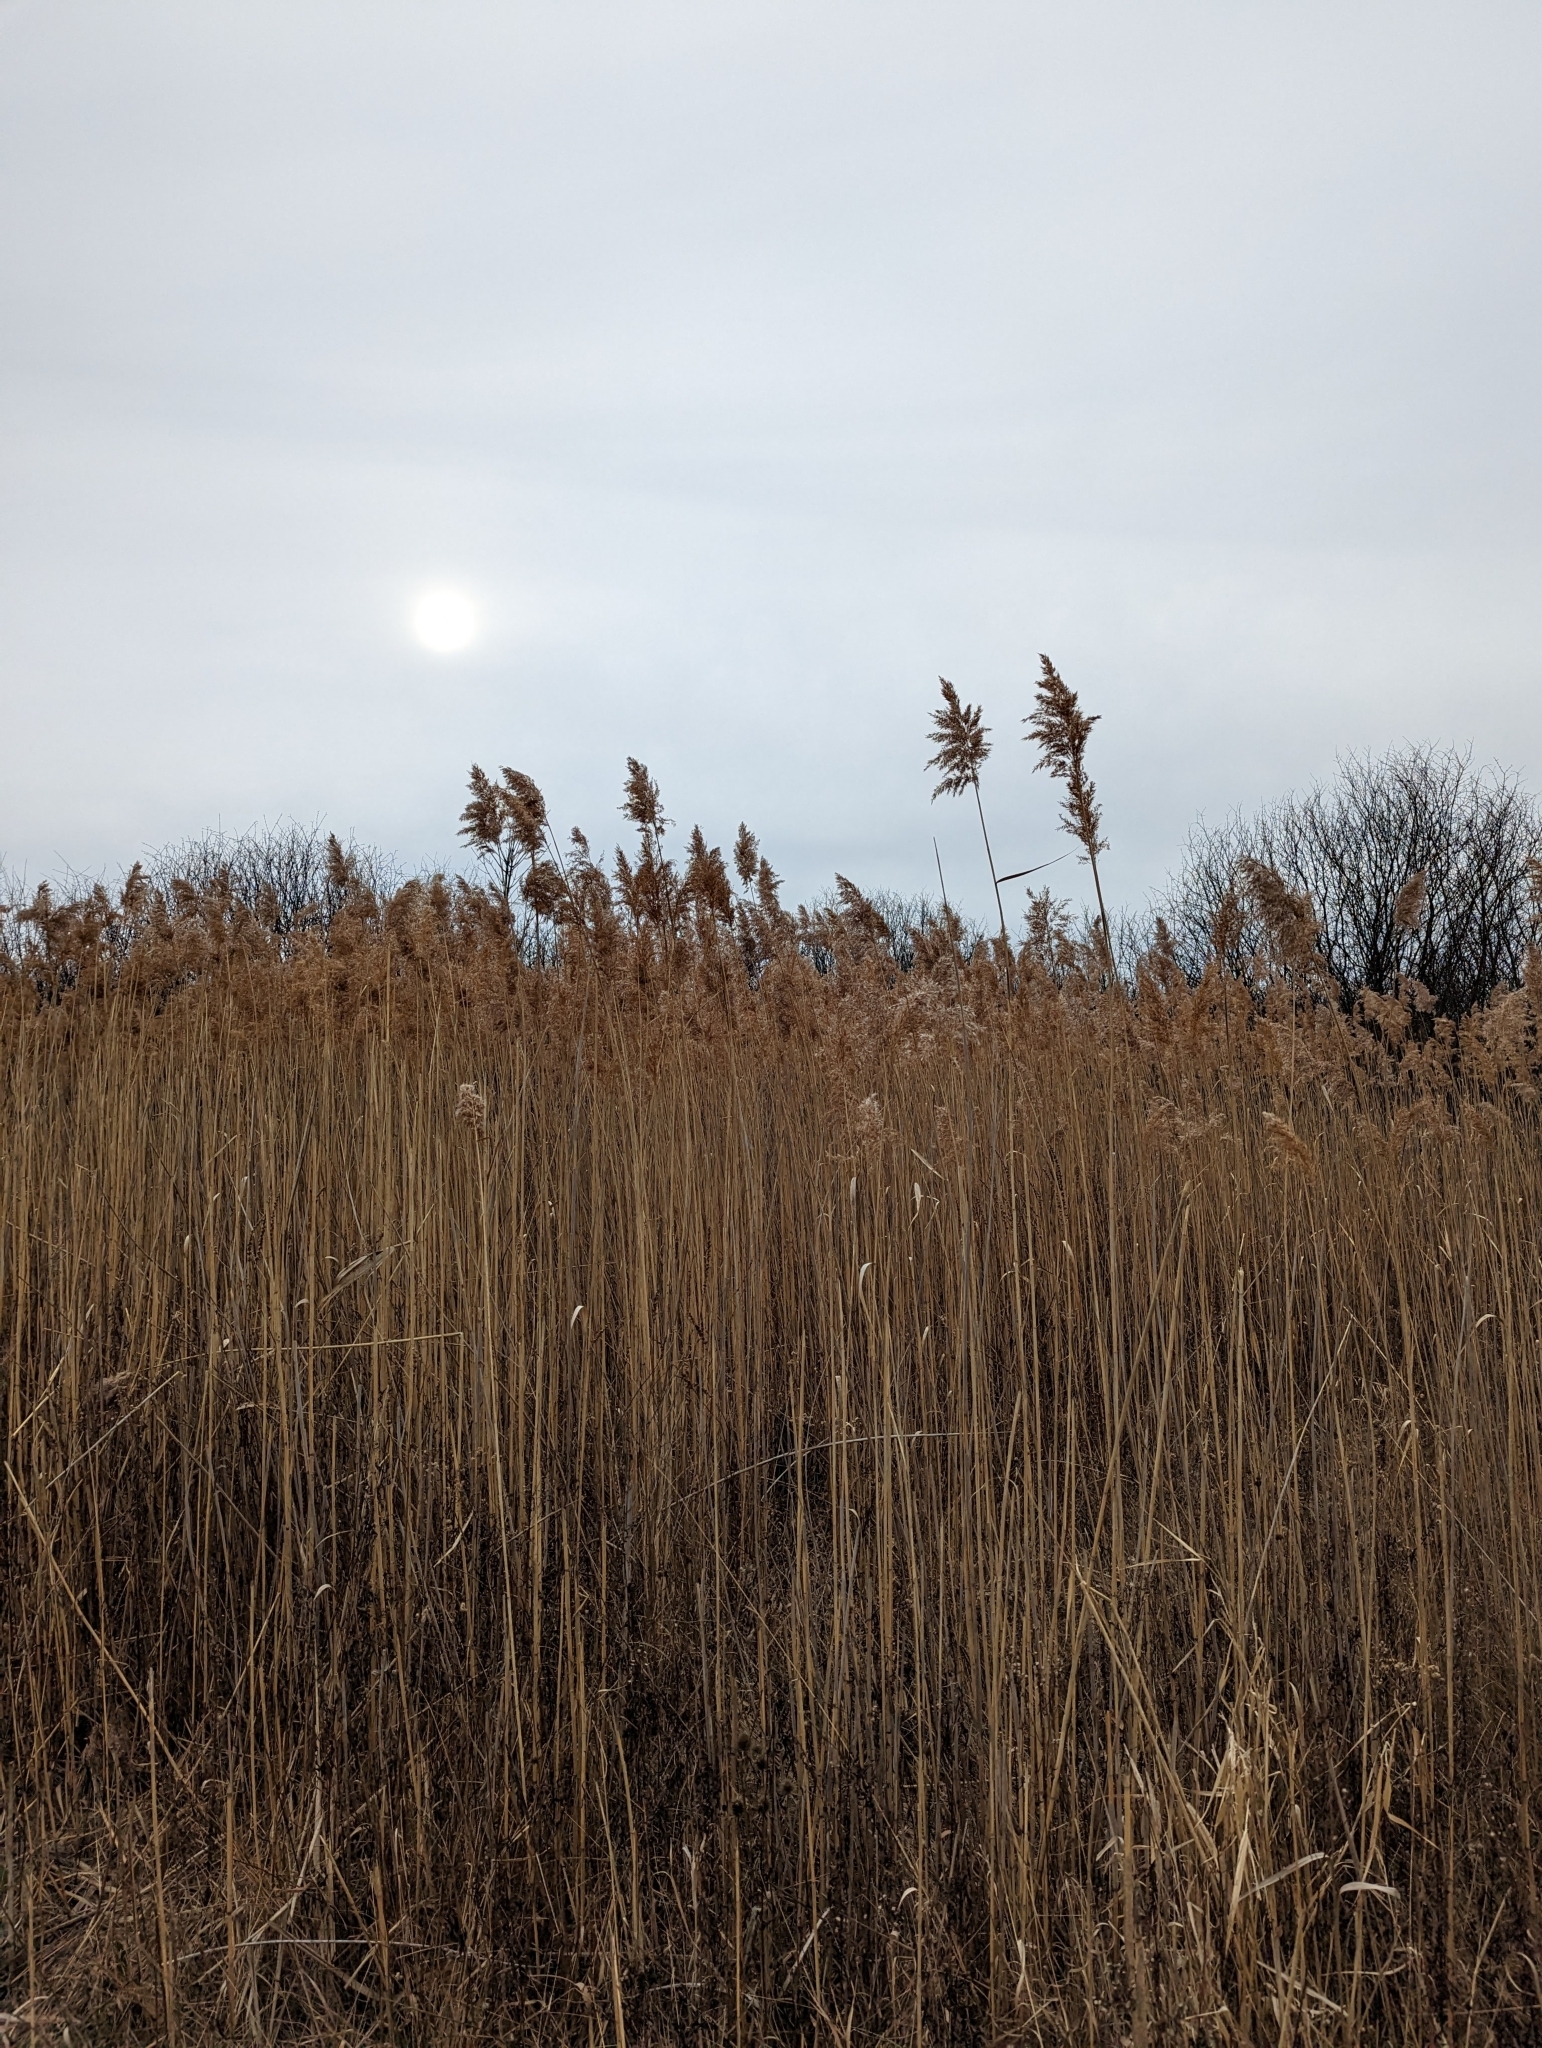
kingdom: Plantae
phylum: Tracheophyta
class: Liliopsida
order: Poales
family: Poaceae
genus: Phragmites
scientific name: Phragmites australis
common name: Common reed
